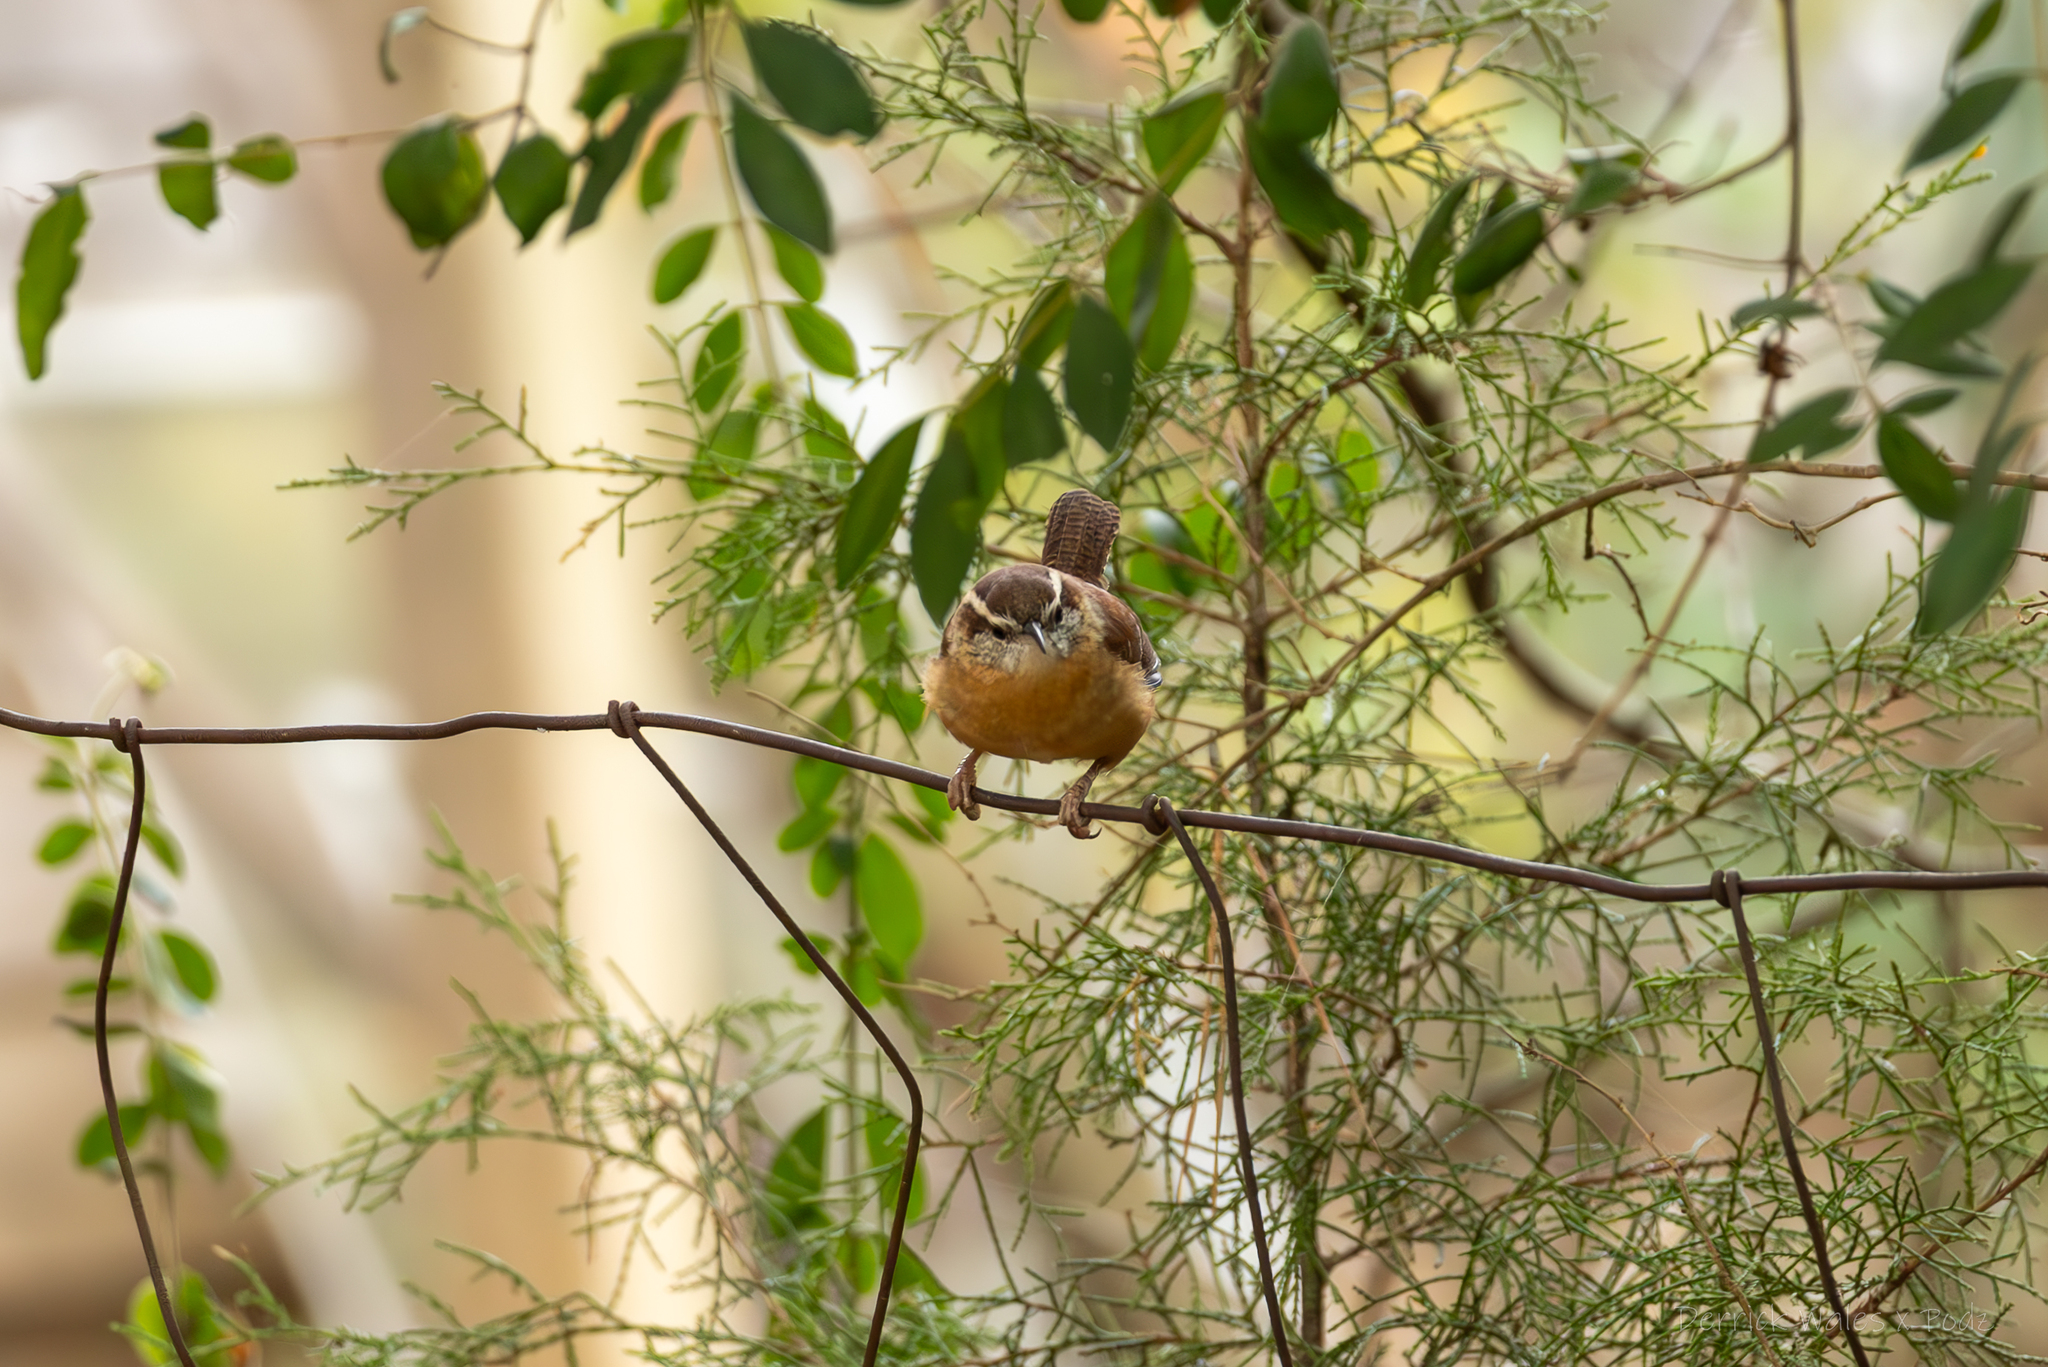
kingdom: Animalia
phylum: Chordata
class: Aves
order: Passeriformes
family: Troglodytidae
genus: Thryothorus
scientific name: Thryothorus ludovicianus
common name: Carolina wren
